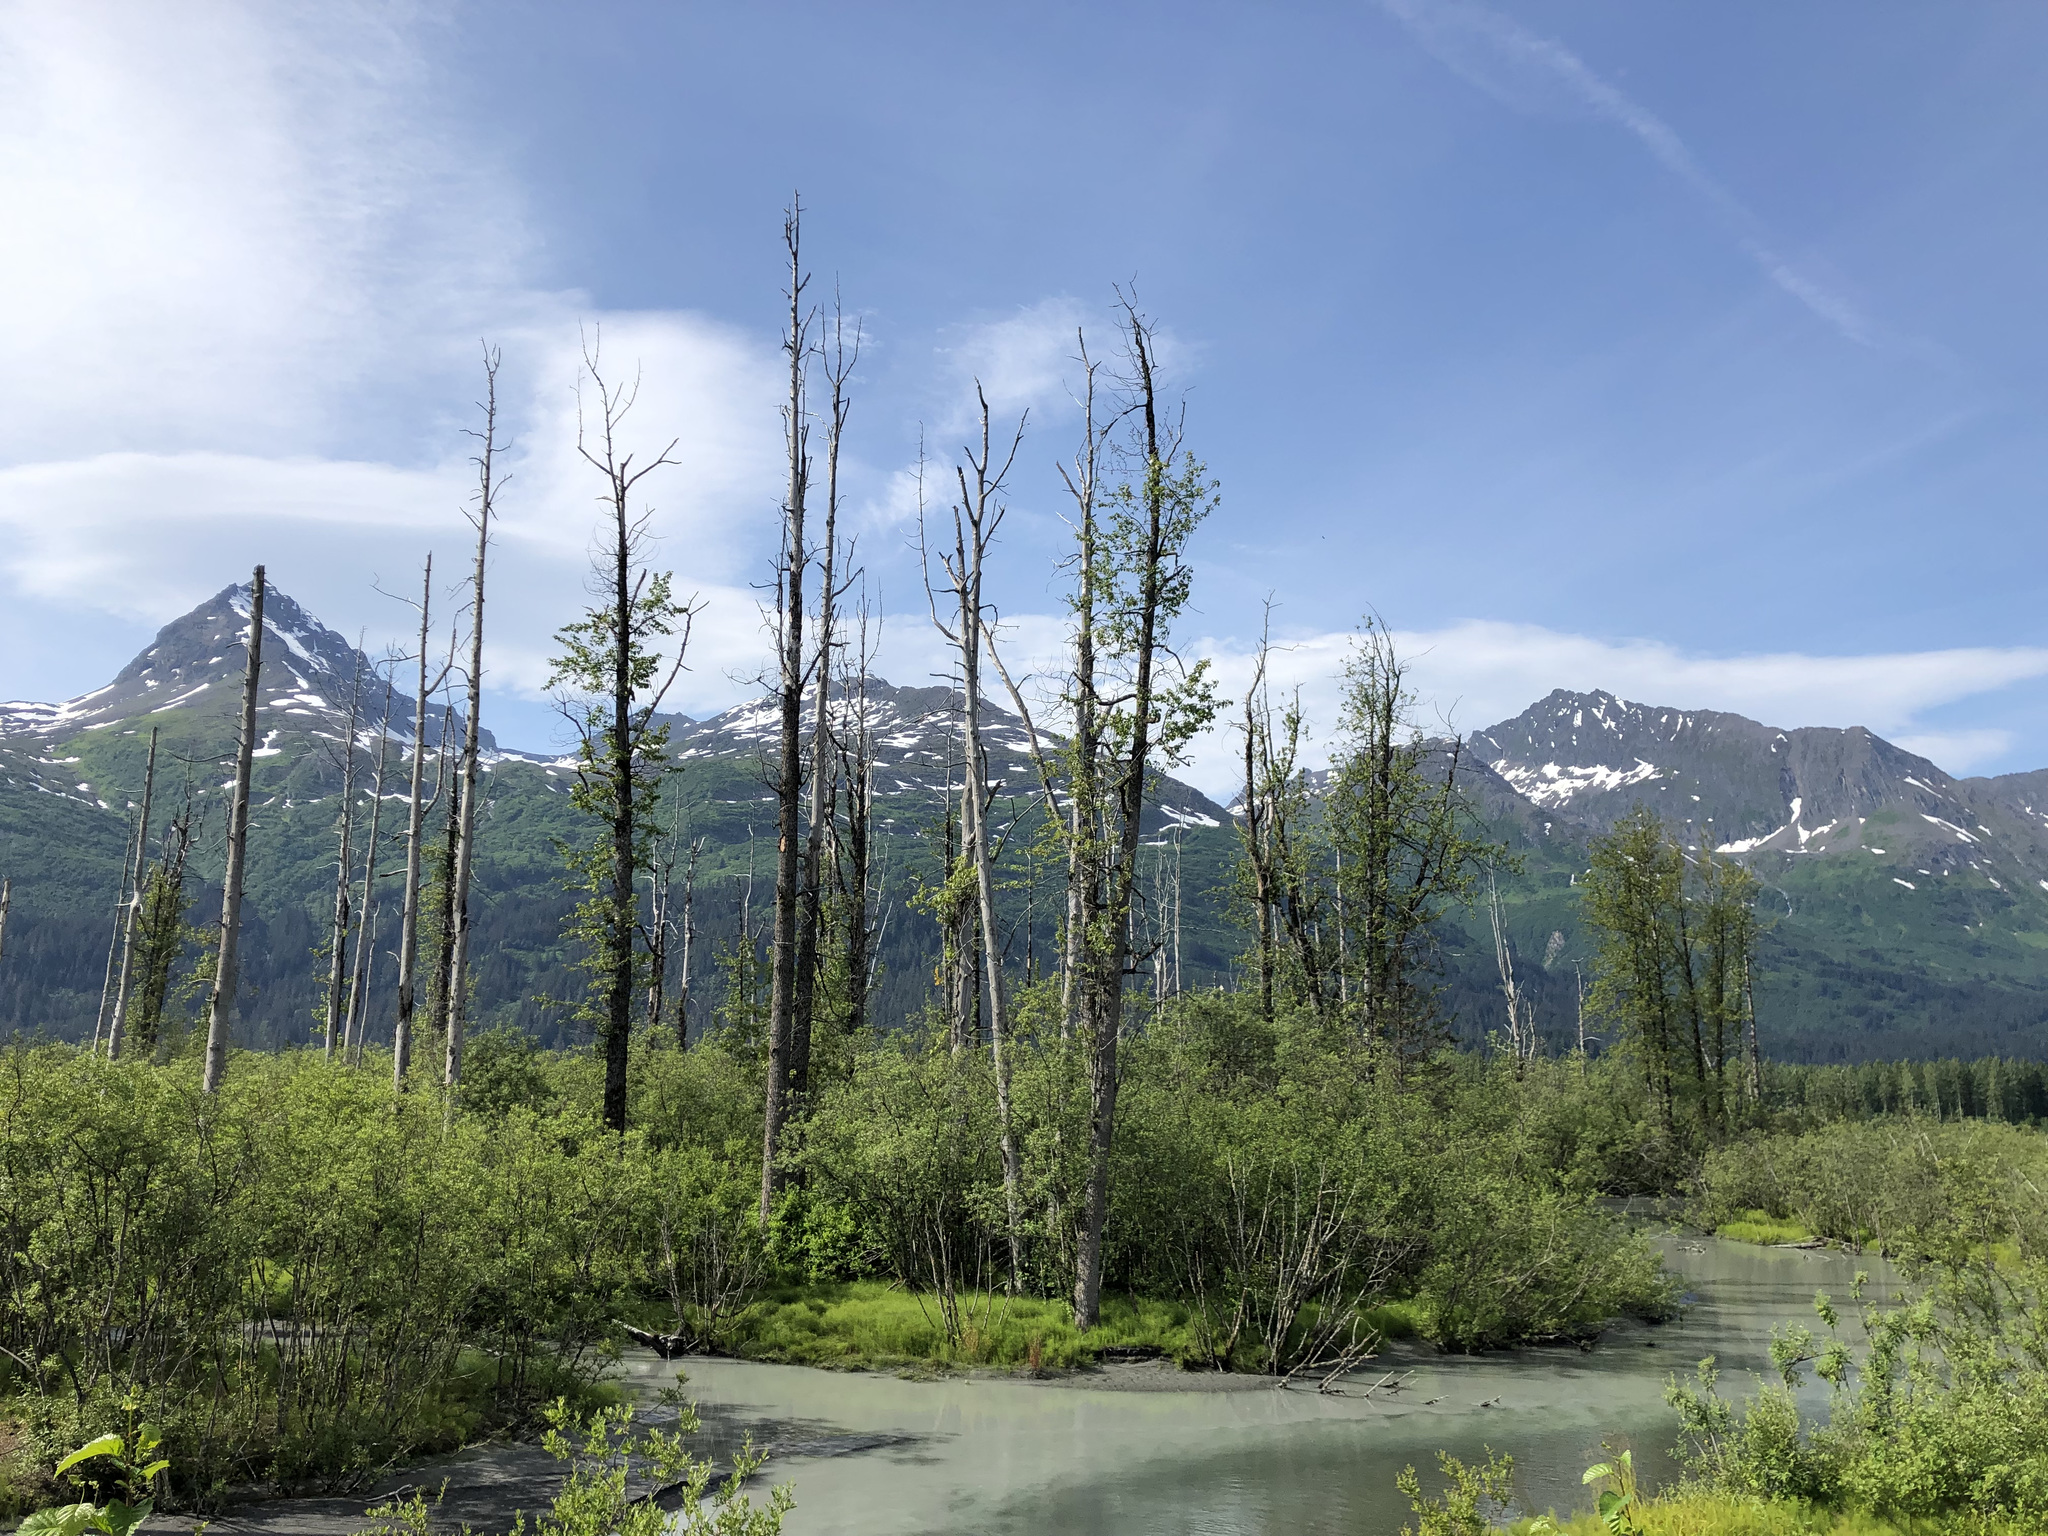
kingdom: Plantae
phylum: Tracheophyta
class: Magnoliopsida
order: Malpighiales
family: Salicaceae
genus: Populus
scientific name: Populus trichocarpa
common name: Black cottonwood
